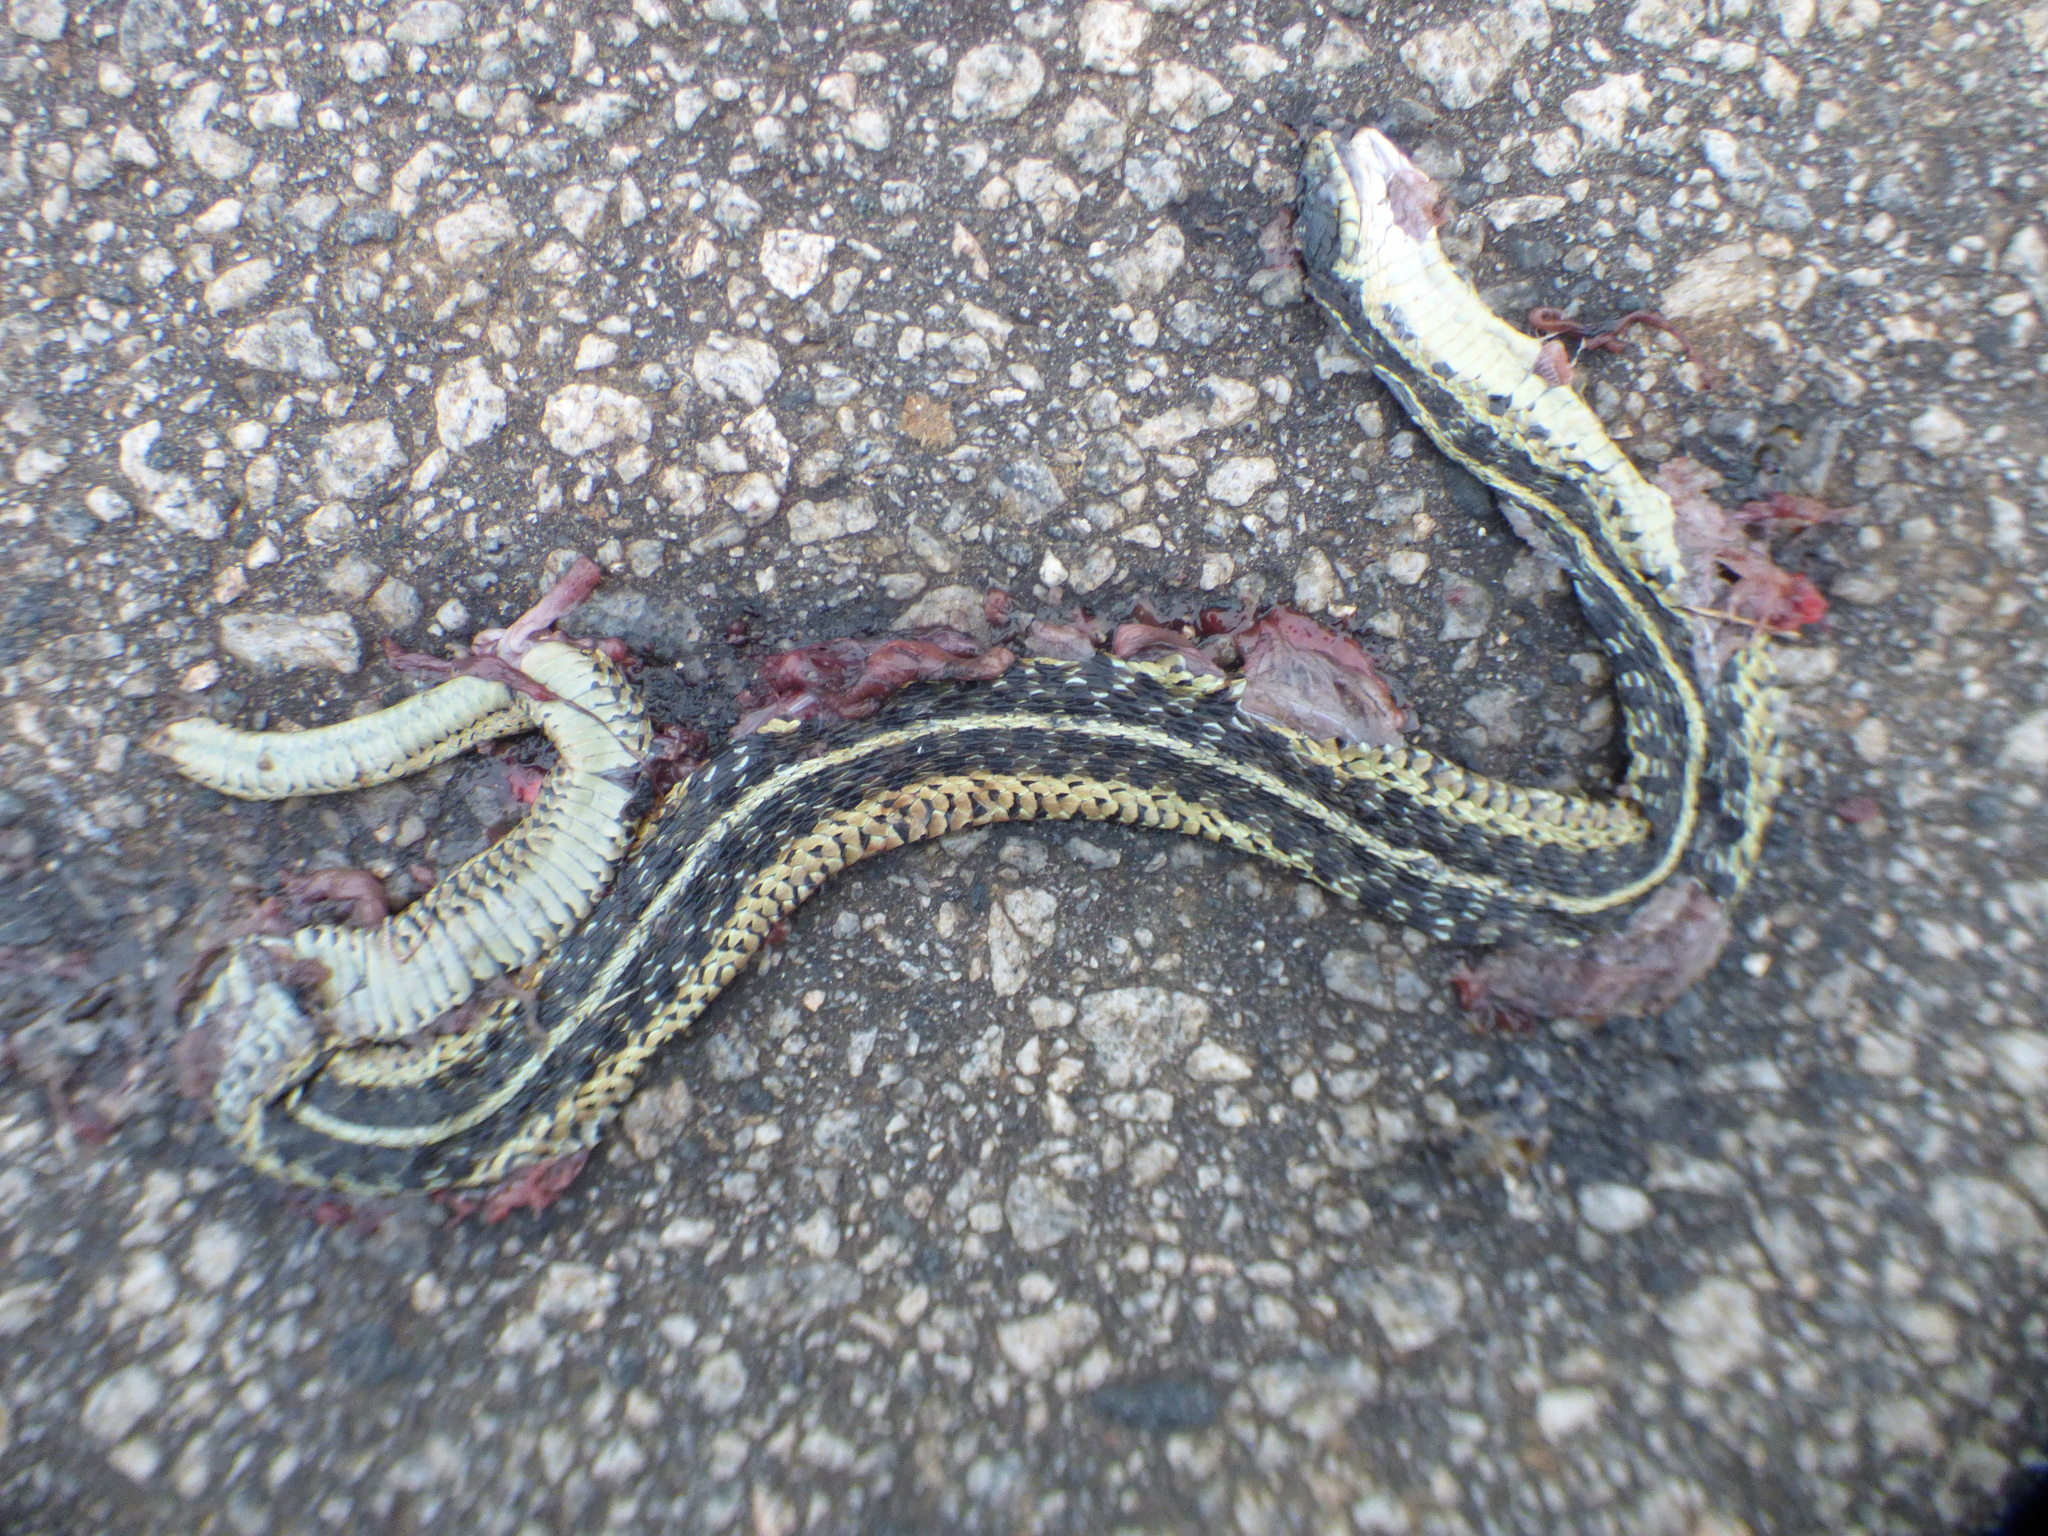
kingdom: Animalia
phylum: Chordata
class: Squamata
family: Colubridae
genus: Thamnophis
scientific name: Thamnophis sirtalis
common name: Common garter snake
